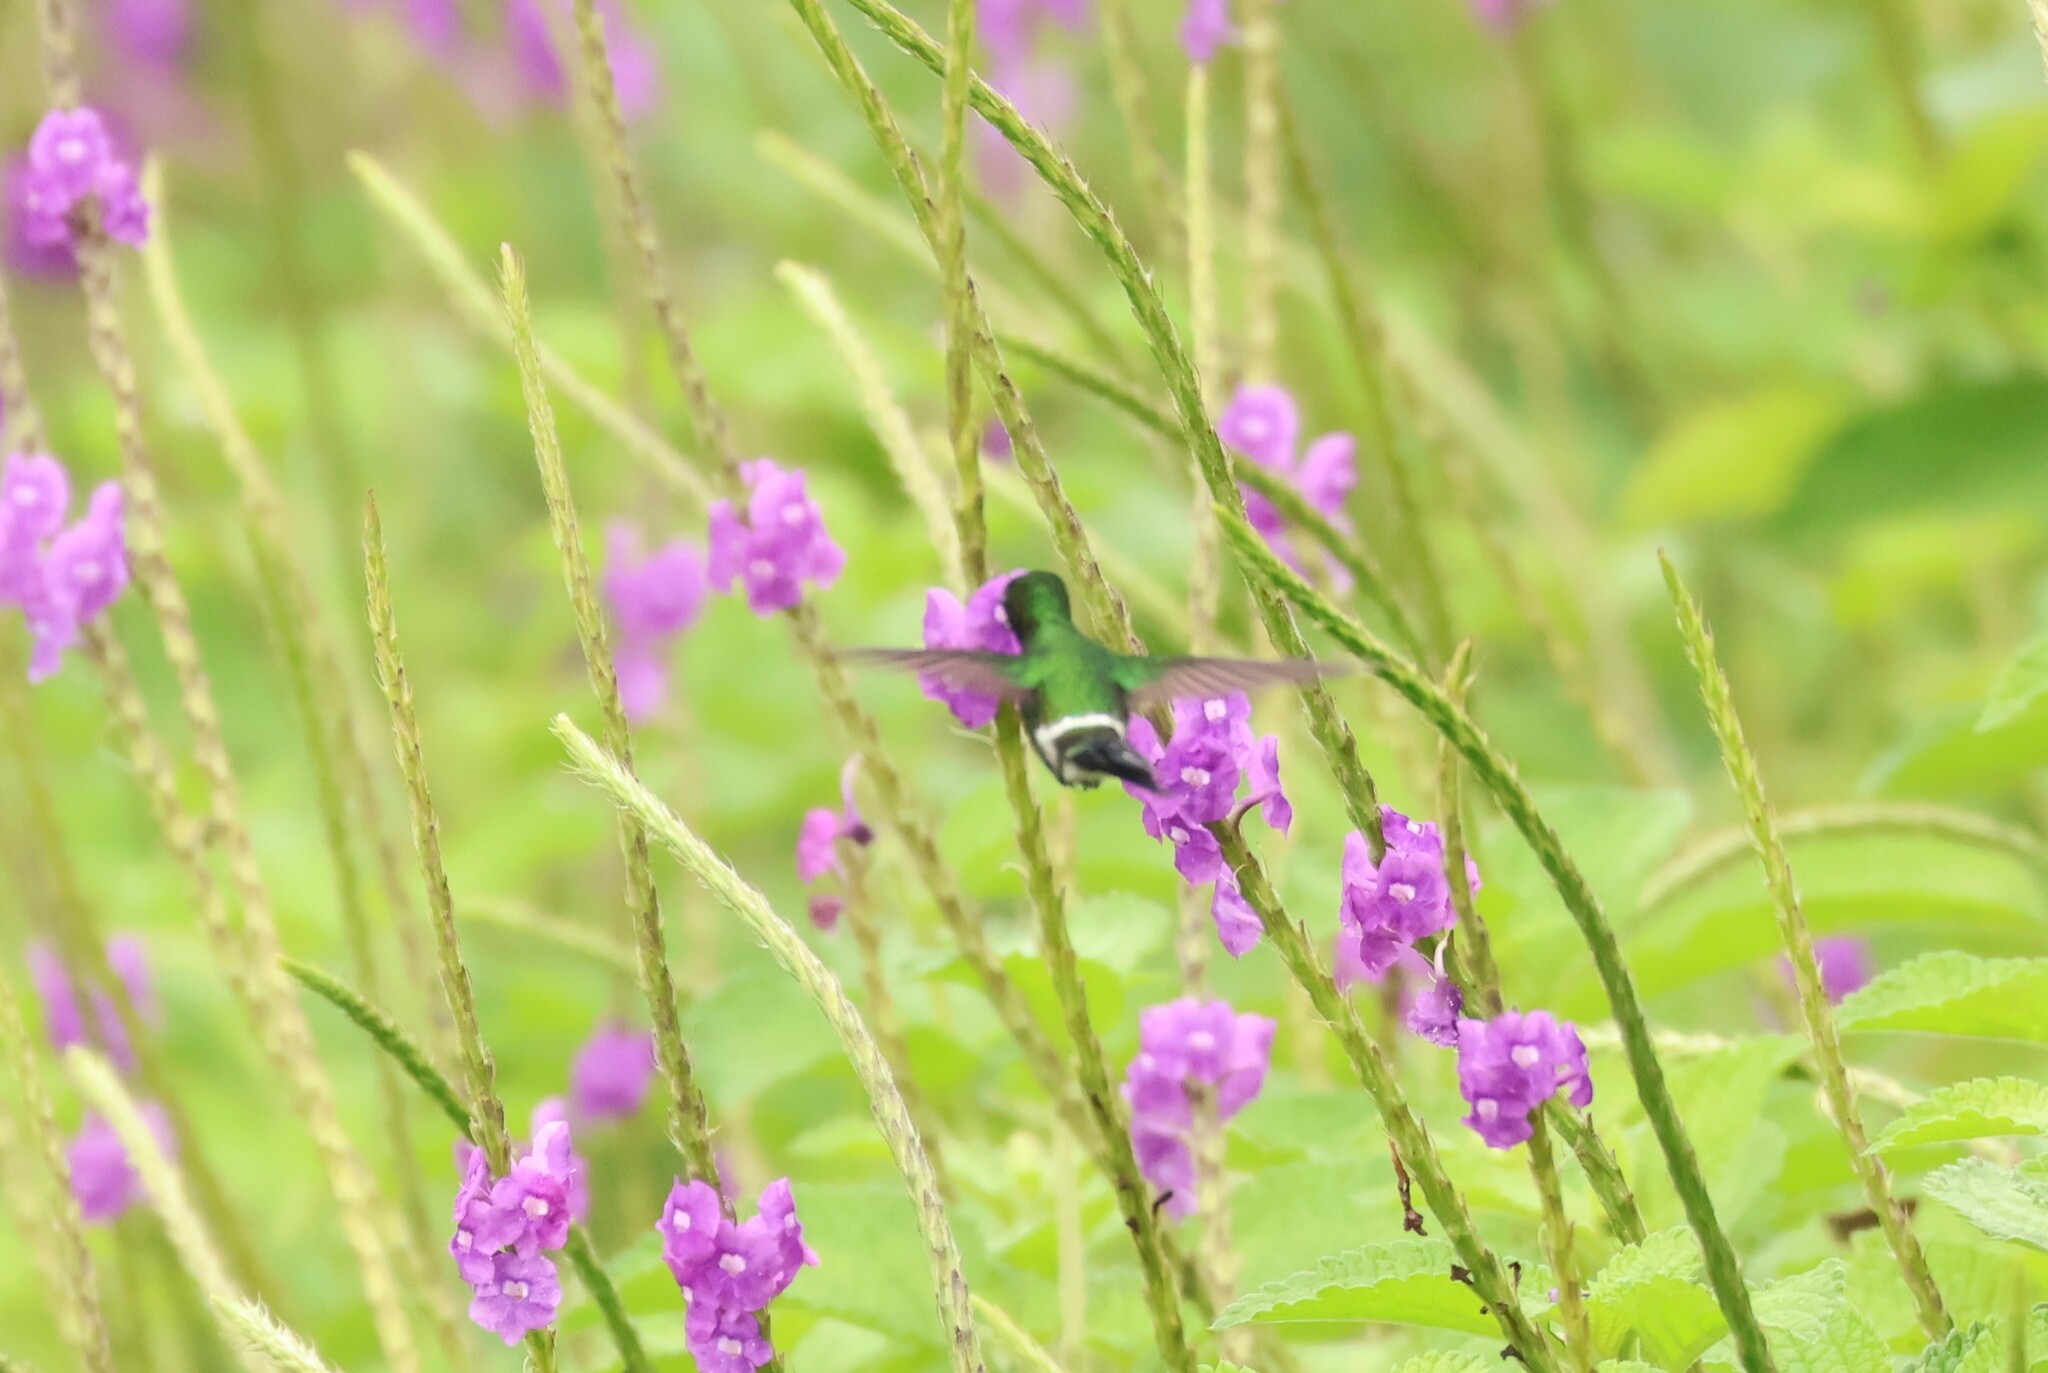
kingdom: Animalia
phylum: Chordata
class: Aves
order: Apodiformes
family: Trochilidae
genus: Discosura
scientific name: Discosura conversii
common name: Green thorntail
